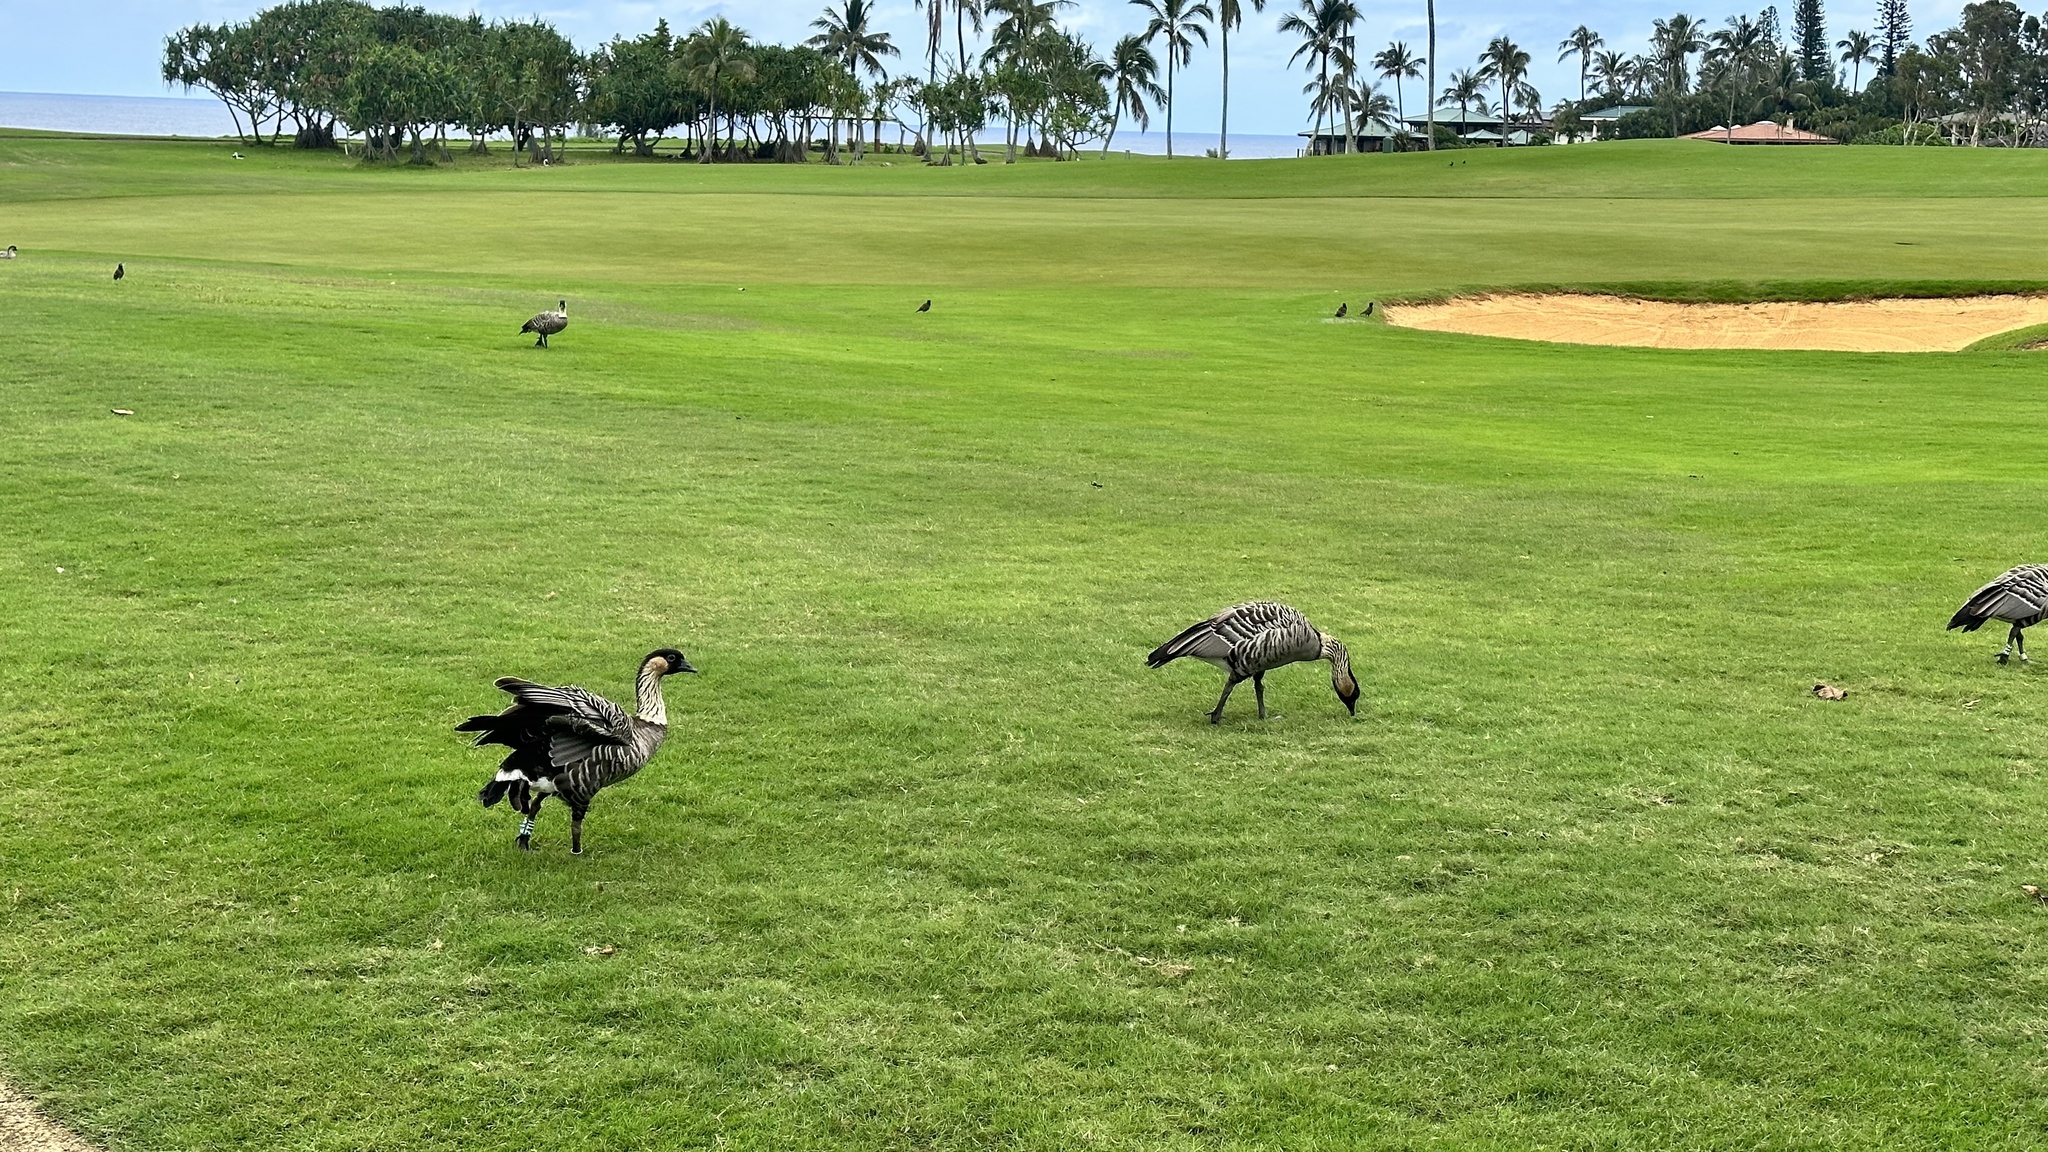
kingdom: Animalia
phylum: Chordata
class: Aves
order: Anseriformes
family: Anatidae
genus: Branta
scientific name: Branta sandvicensis
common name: Nene
